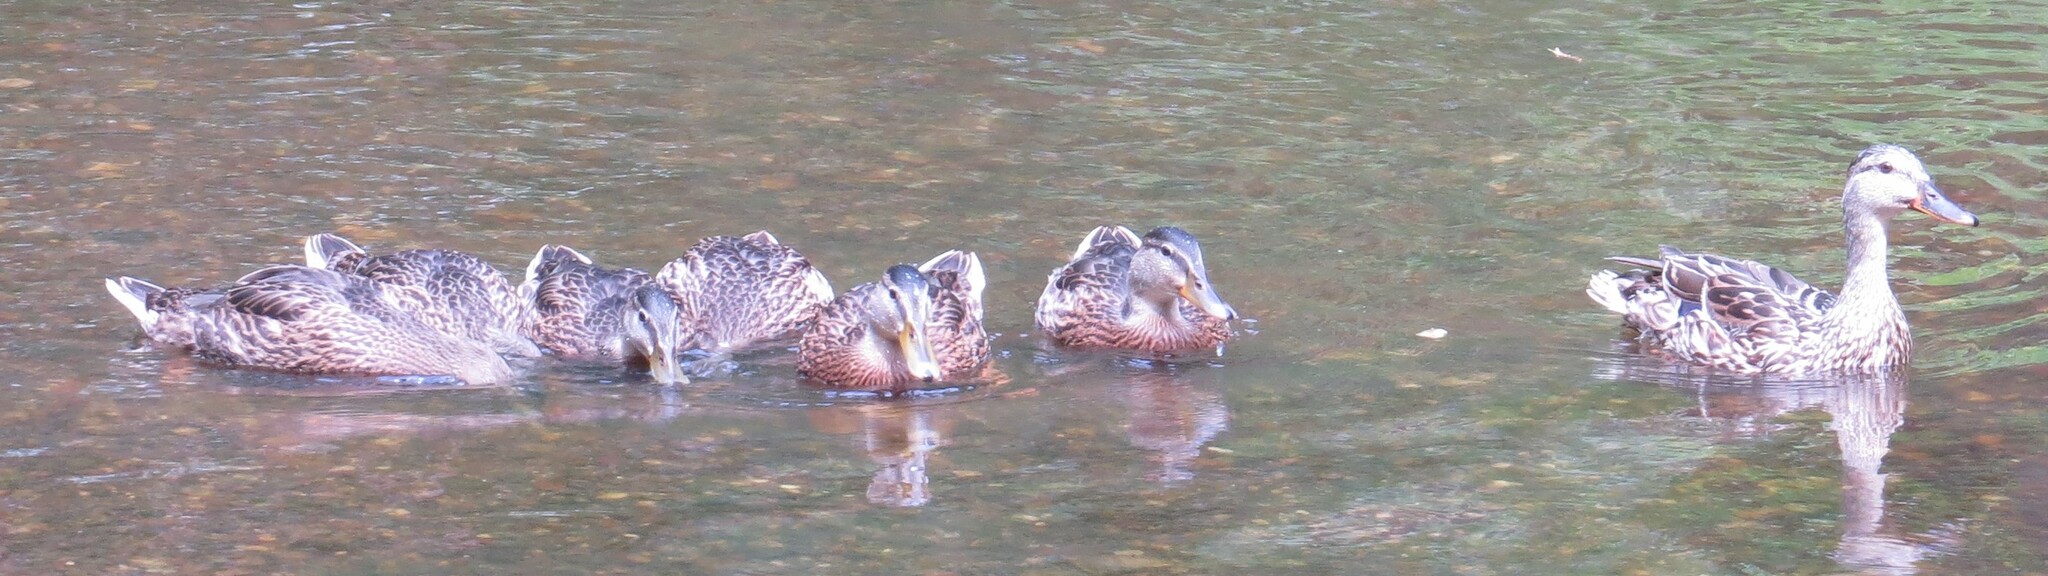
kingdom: Animalia
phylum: Chordata
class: Aves
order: Anseriformes
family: Anatidae
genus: Anas
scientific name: Anas platyrhynchos
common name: Mallard
